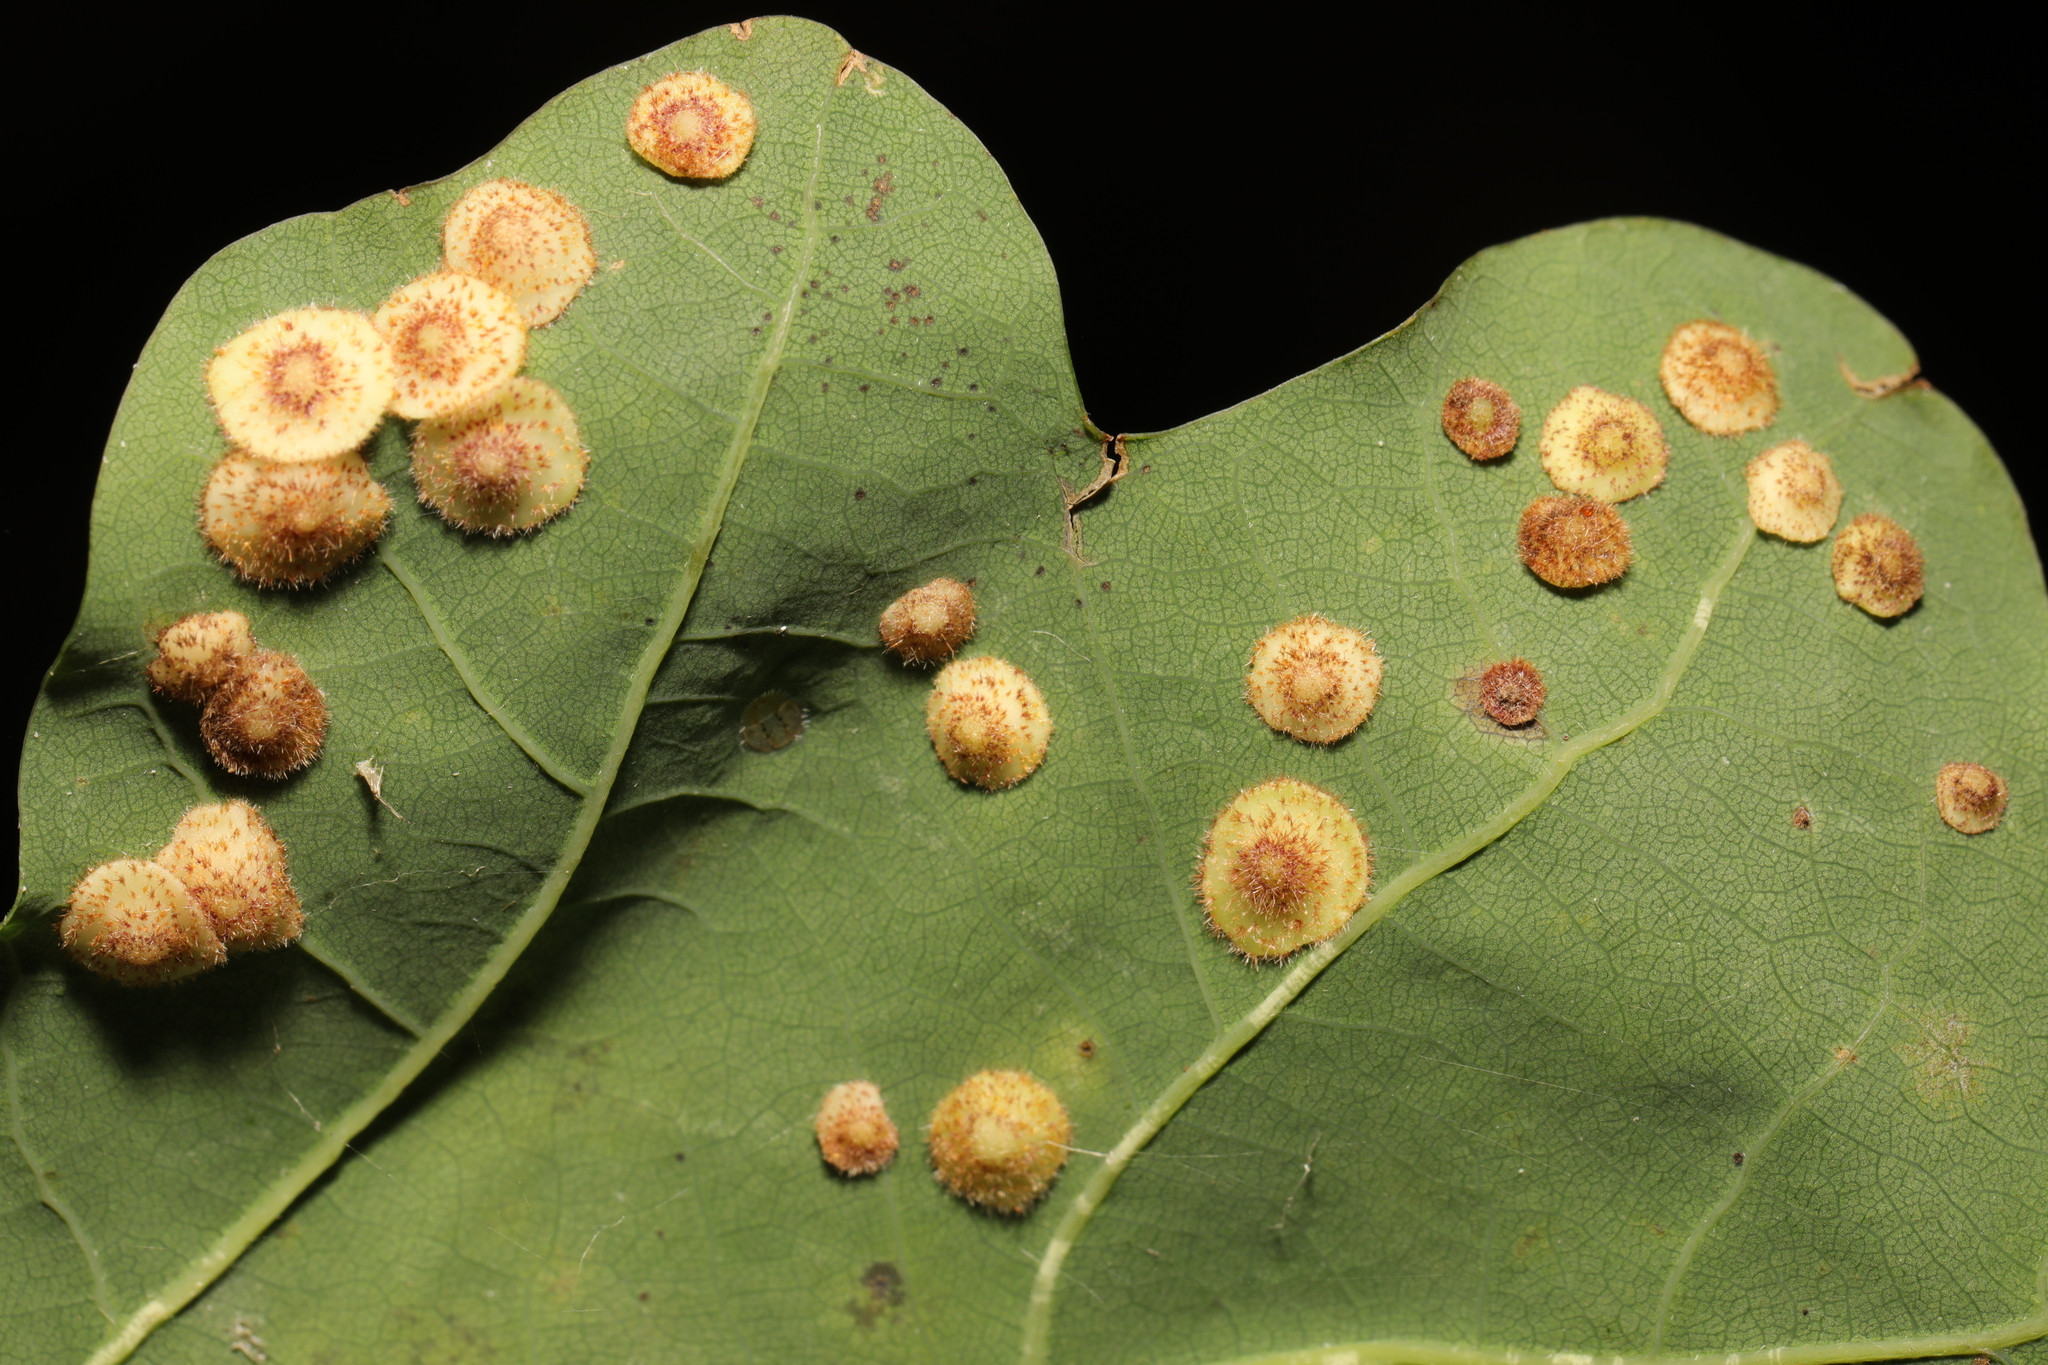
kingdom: Animalia
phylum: Arthropoda
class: Insecta
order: Hymenoptera
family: Cynipidae
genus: Neuroterus
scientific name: Neuroterus quercusbaccarum
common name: Common spangle gall
